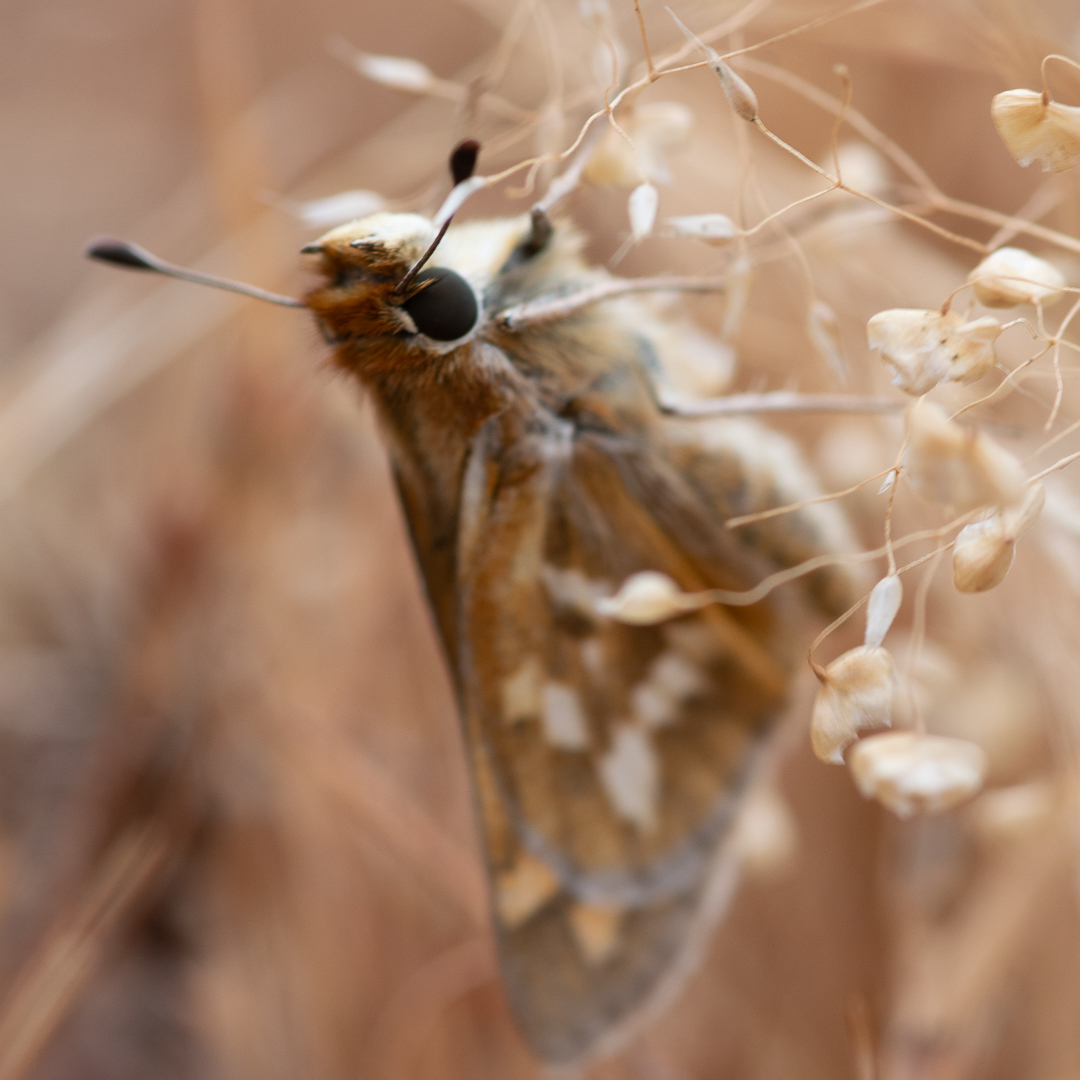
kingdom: Animalia
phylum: Arthropoda
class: Insecta
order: Lepidoptera
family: Hesperiidae
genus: Hylephila
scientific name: Hylephila signata
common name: Signata skipper
